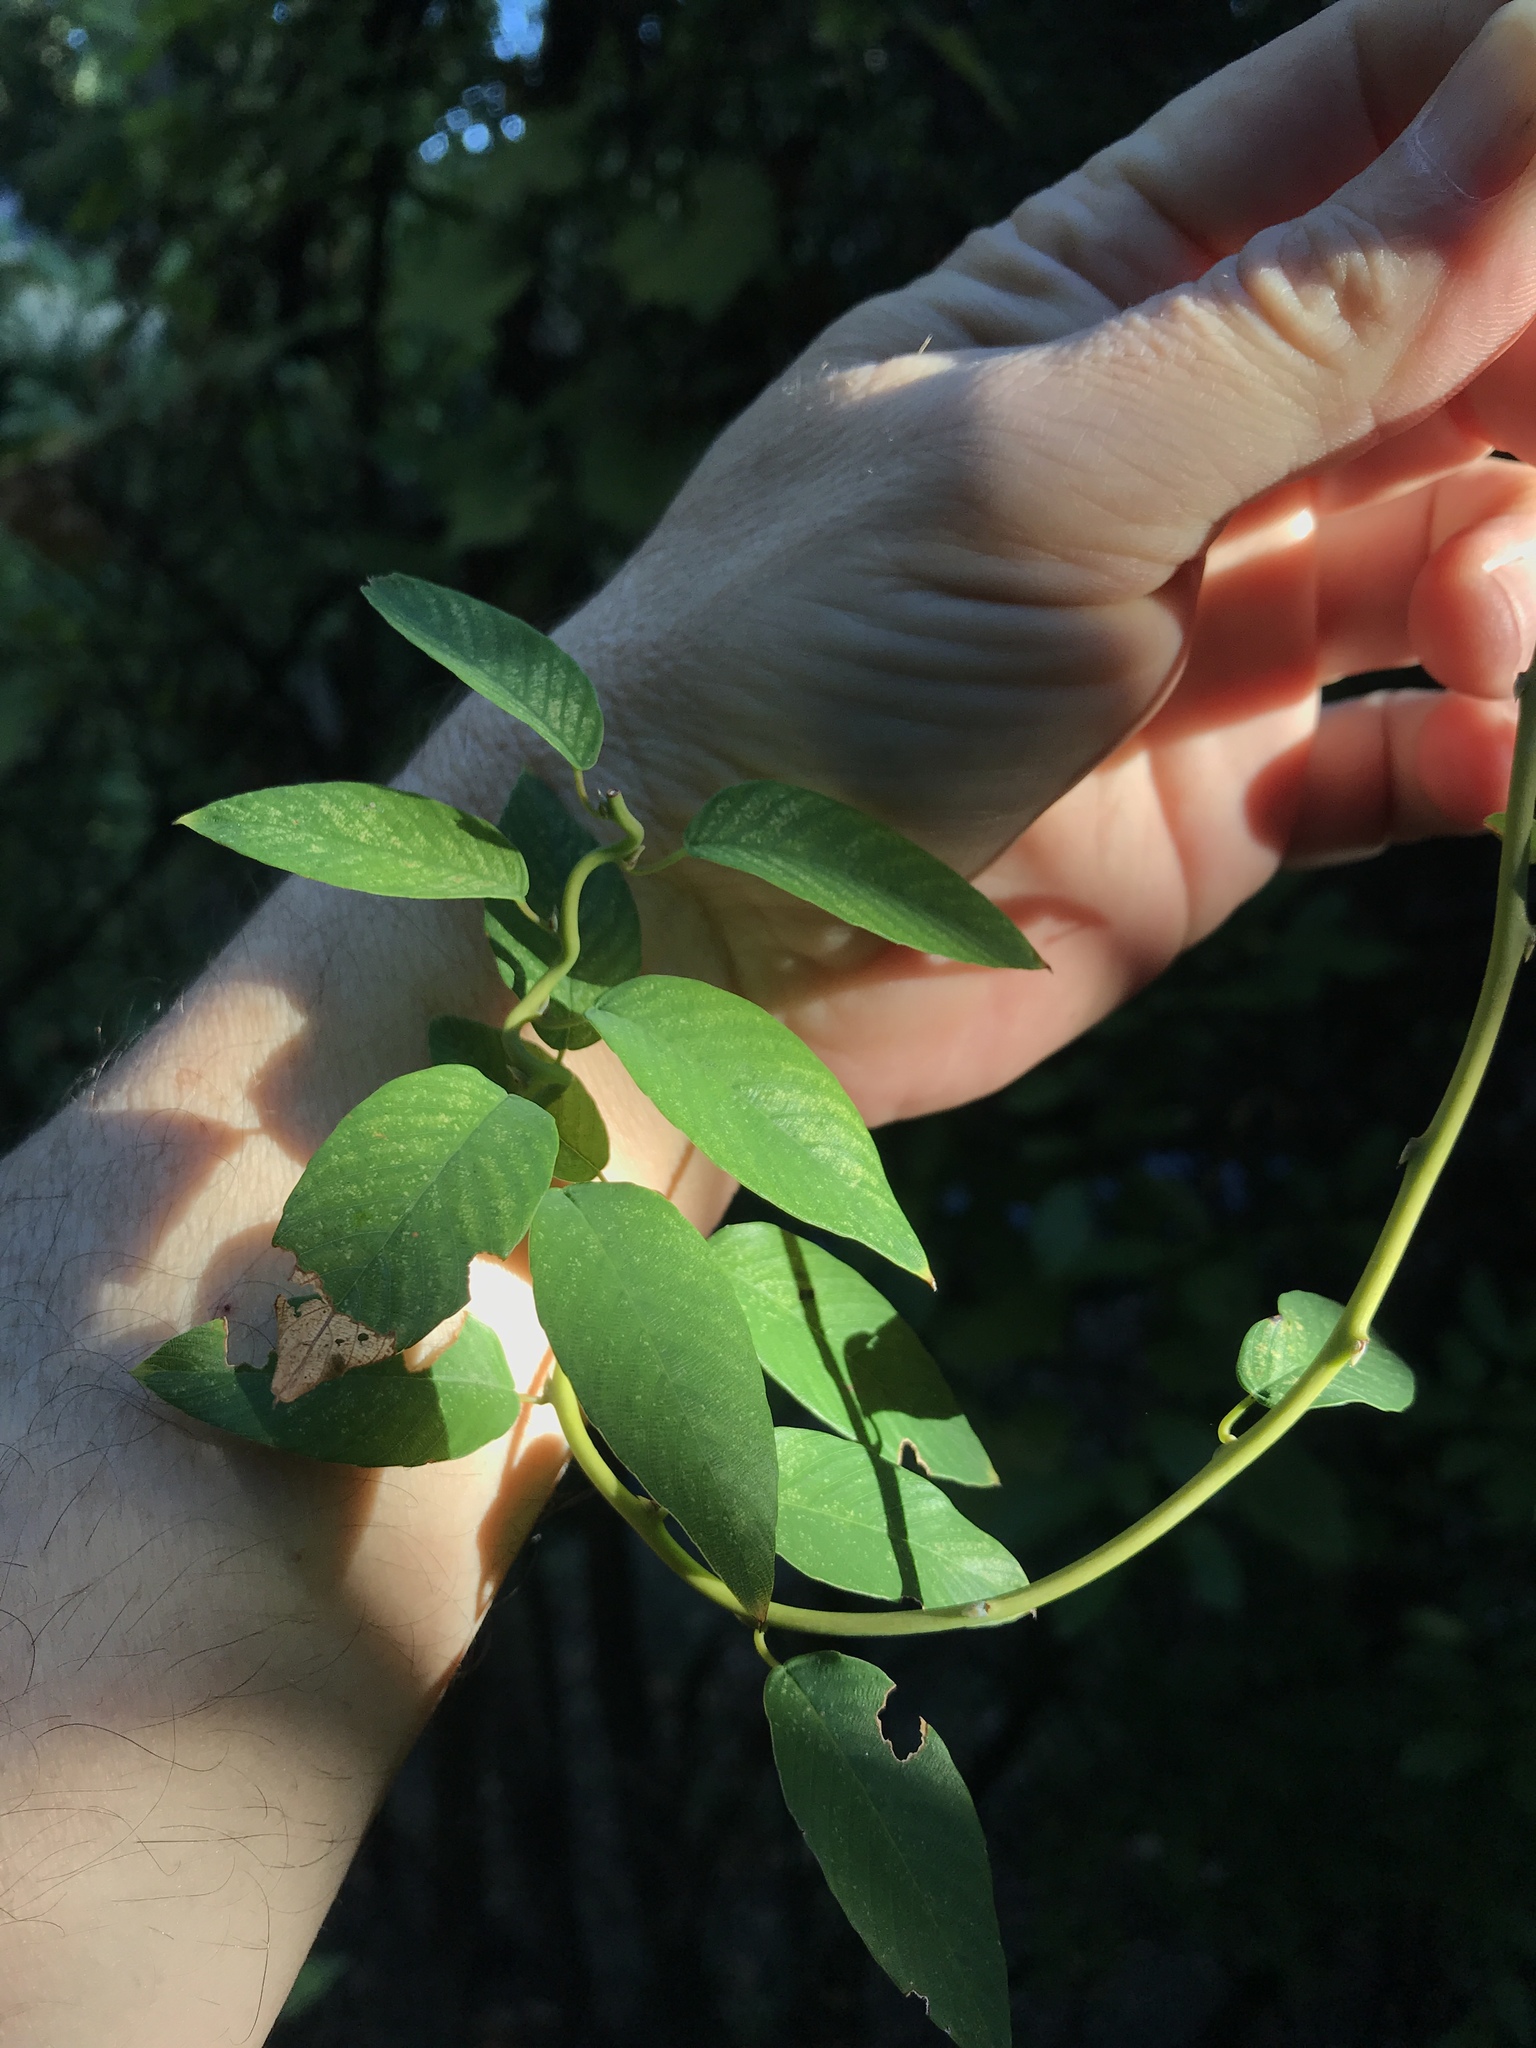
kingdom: Plantae
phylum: Tracheophyta
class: Magnoliopsida
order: Rosales
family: Rhamnaceae
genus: Berchemia
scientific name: Berchemia scandens
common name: Supplejack
